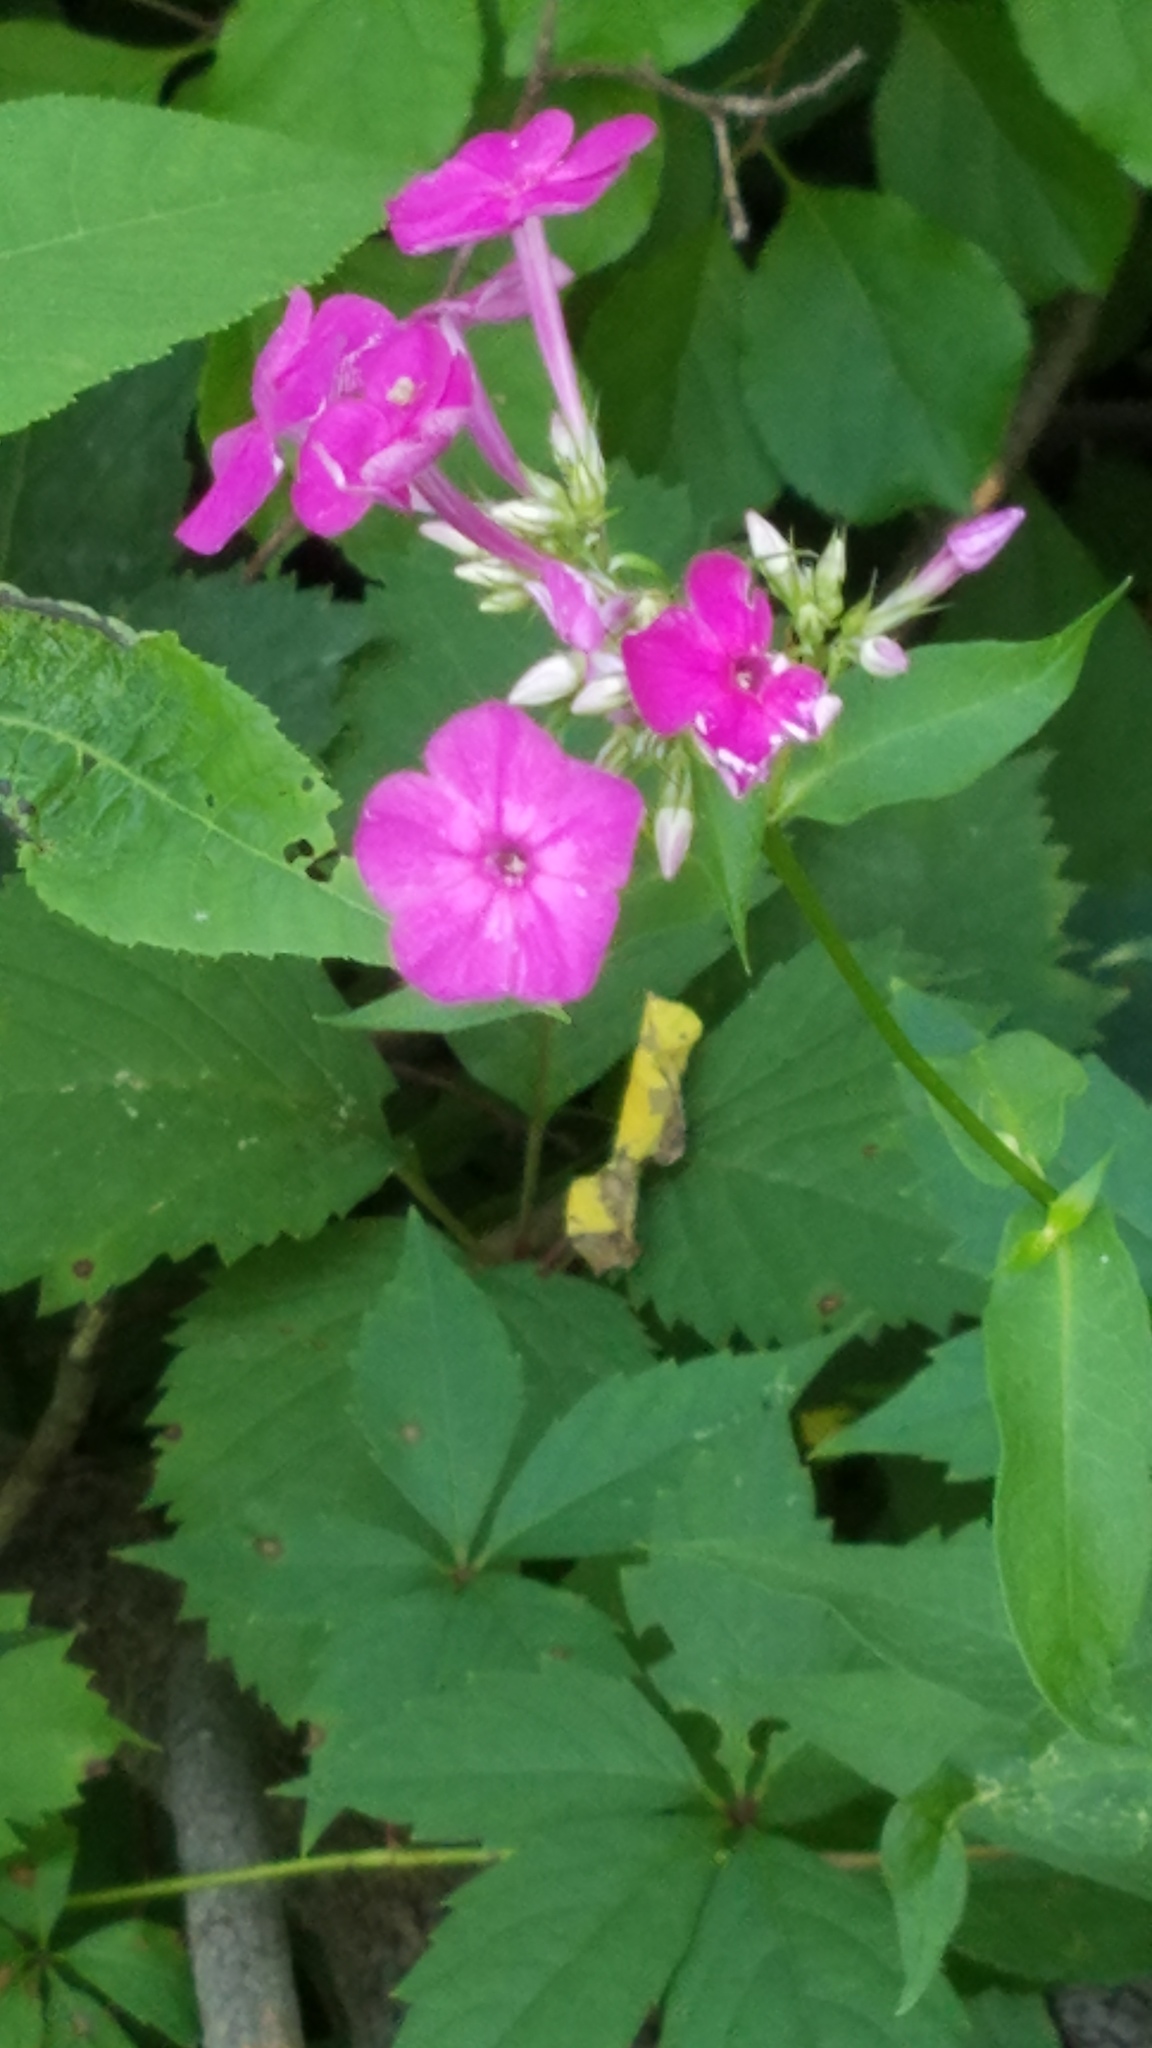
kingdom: Plantae
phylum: Tracheophyta
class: Magnoliopsida
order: Ericales
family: Polemoniaceae
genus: Phlox
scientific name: Phlox paniculata
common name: Fall phlox
